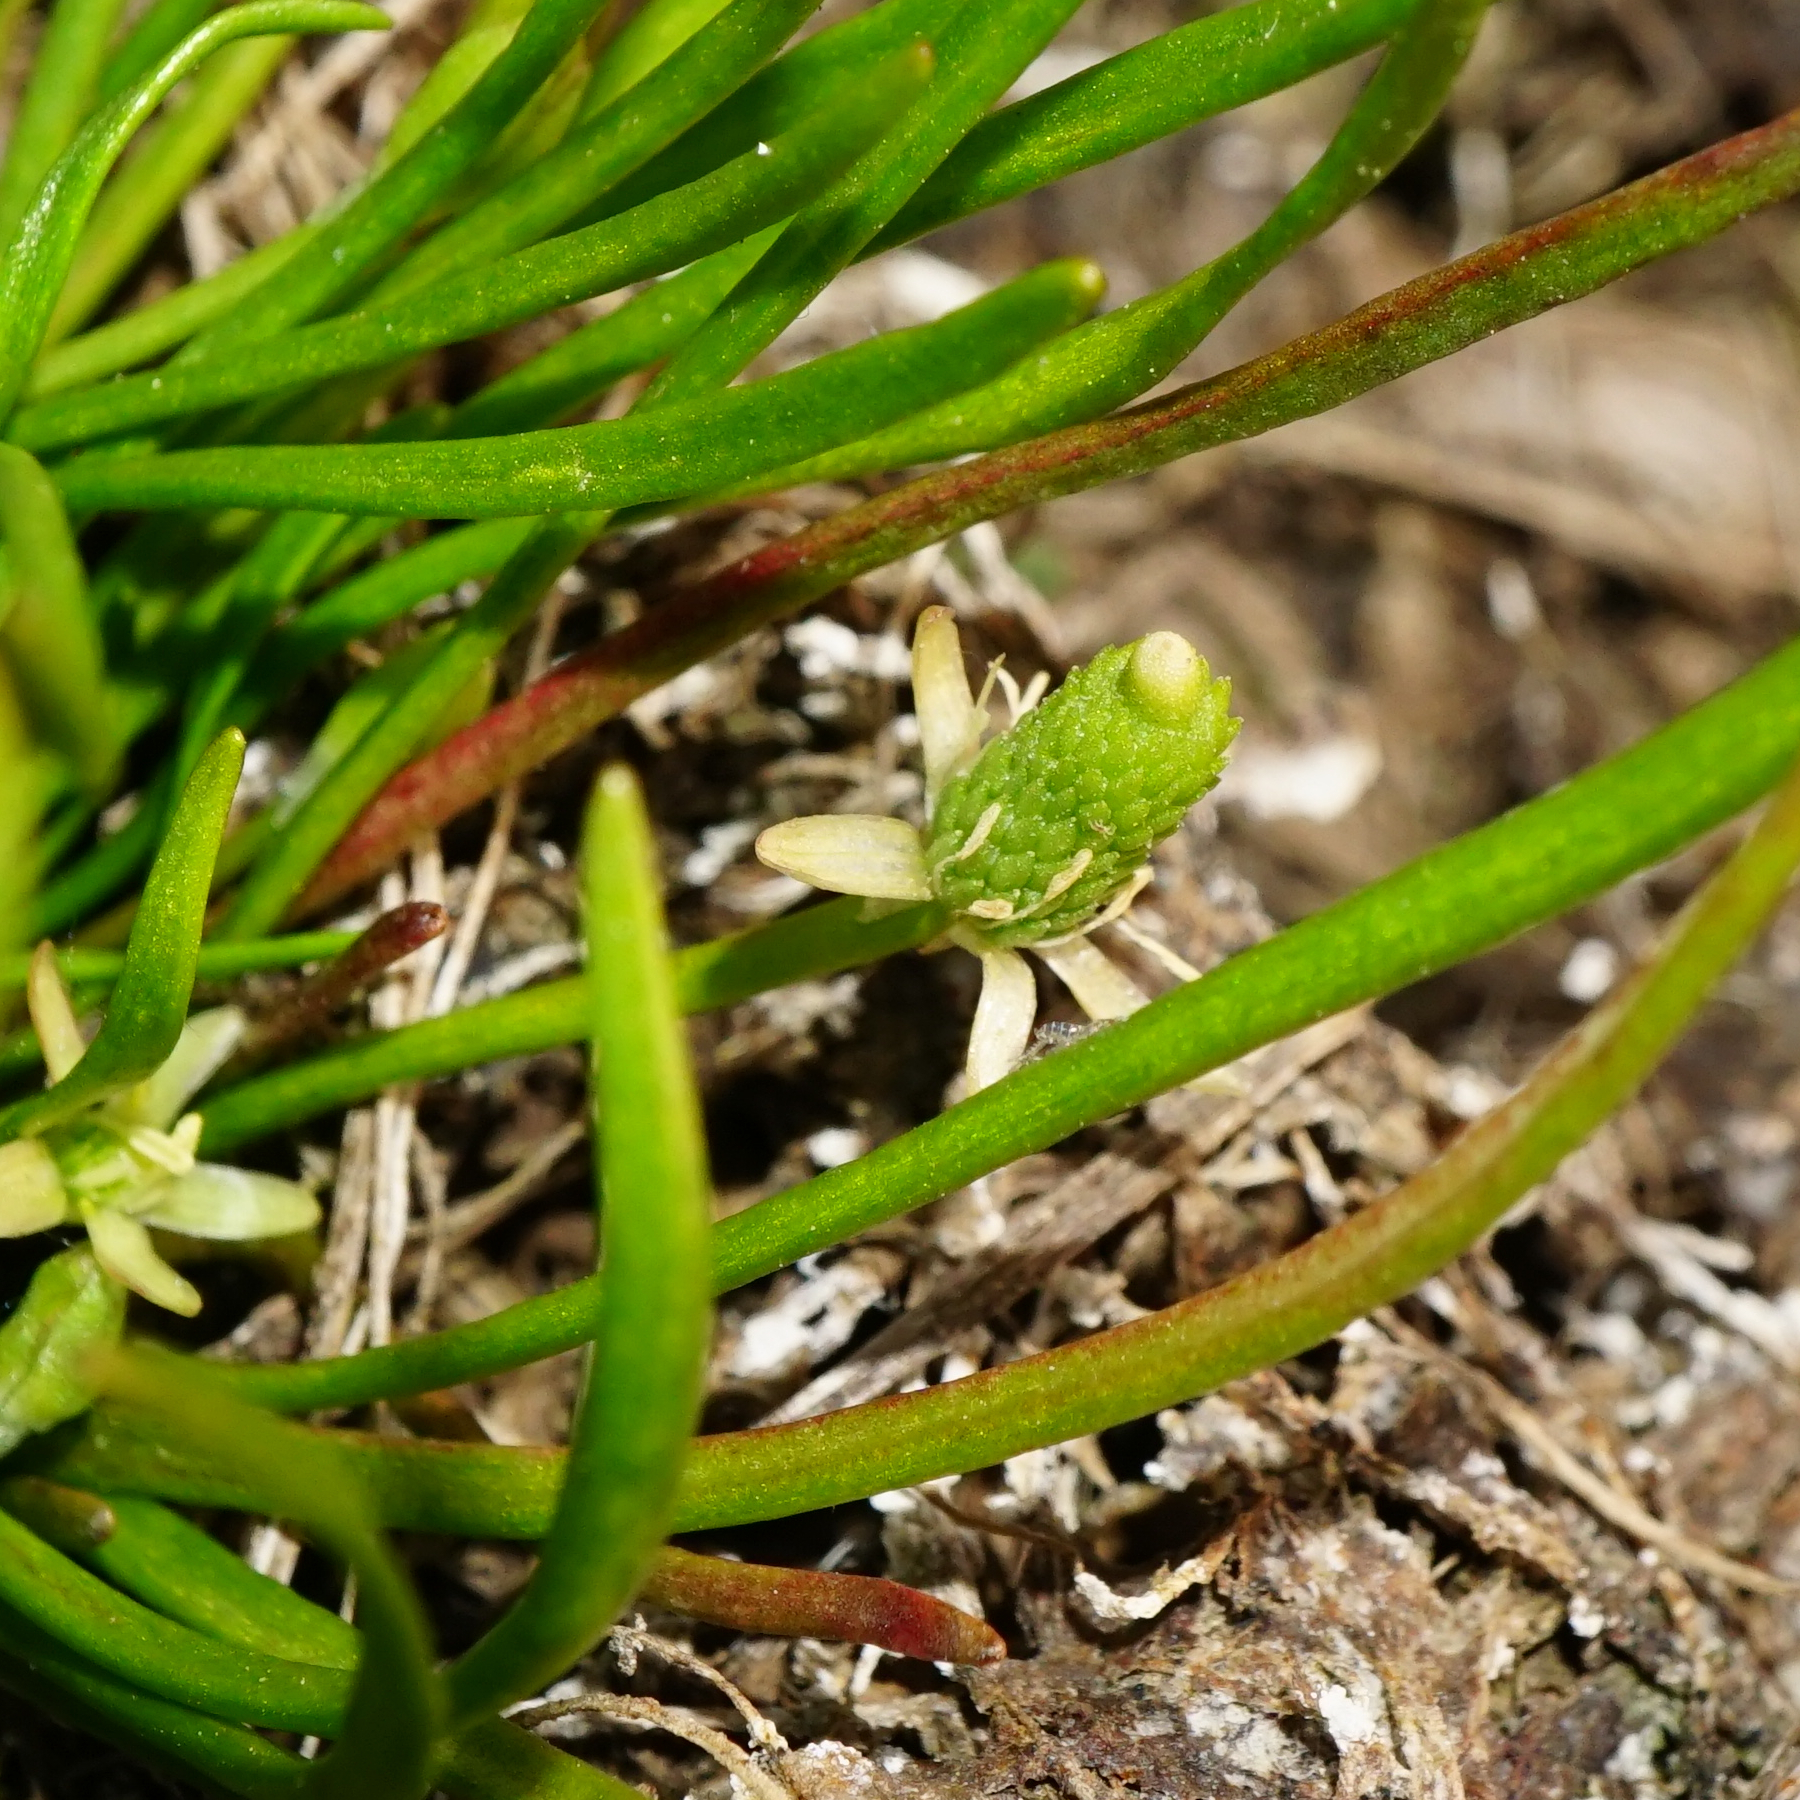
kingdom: Plantae
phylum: Tracheophyta
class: Magnoliopsida
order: Ranunculales
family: Ranunculaceae
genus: Myosurus
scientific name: Myosurus minimus
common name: Mousetail
